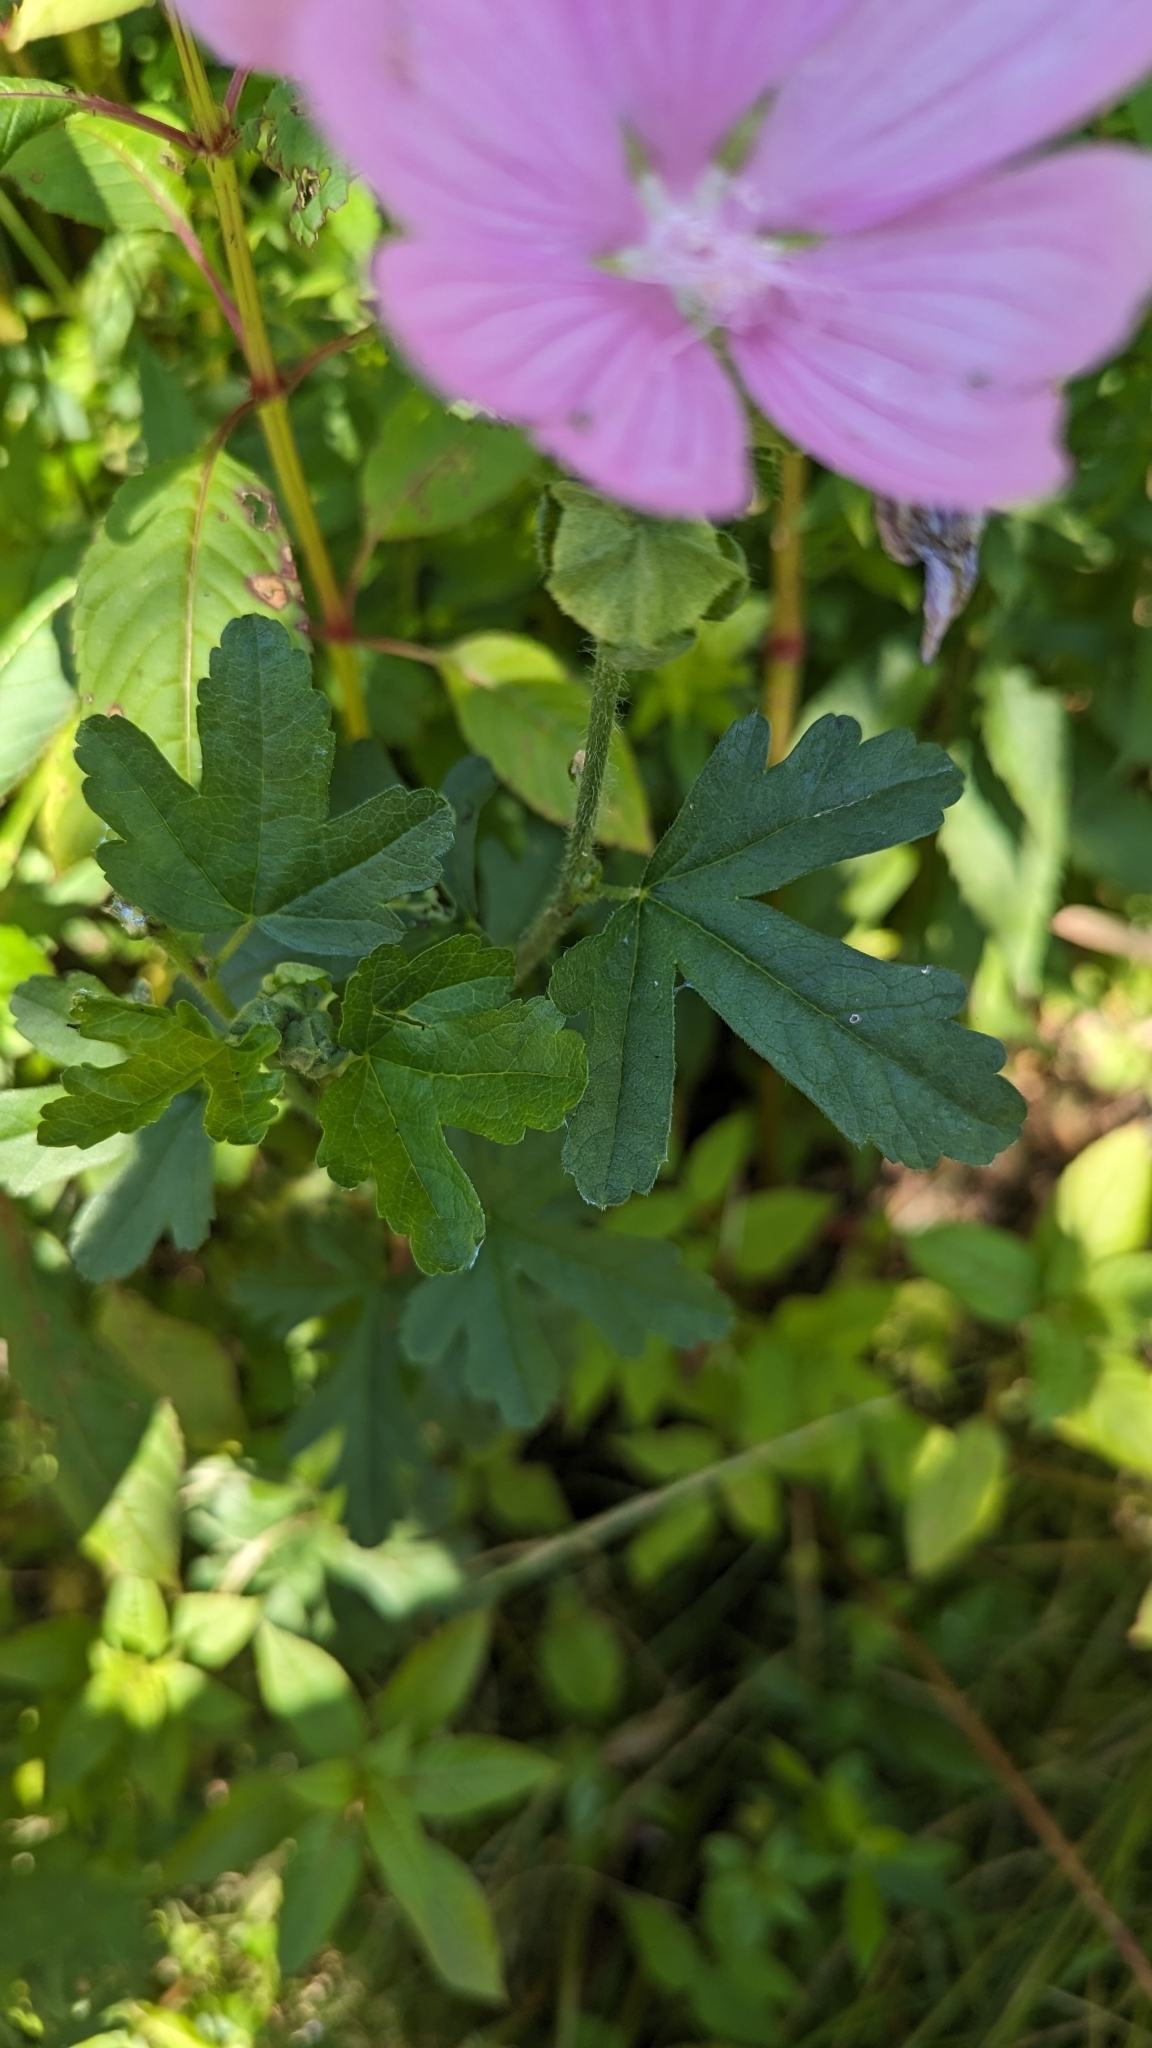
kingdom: Plantae
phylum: Tracheophyta
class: Magnoliopsida
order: Malvales
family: Malvaceae
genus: Malva
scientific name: Malva moschata
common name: Musk mallow
